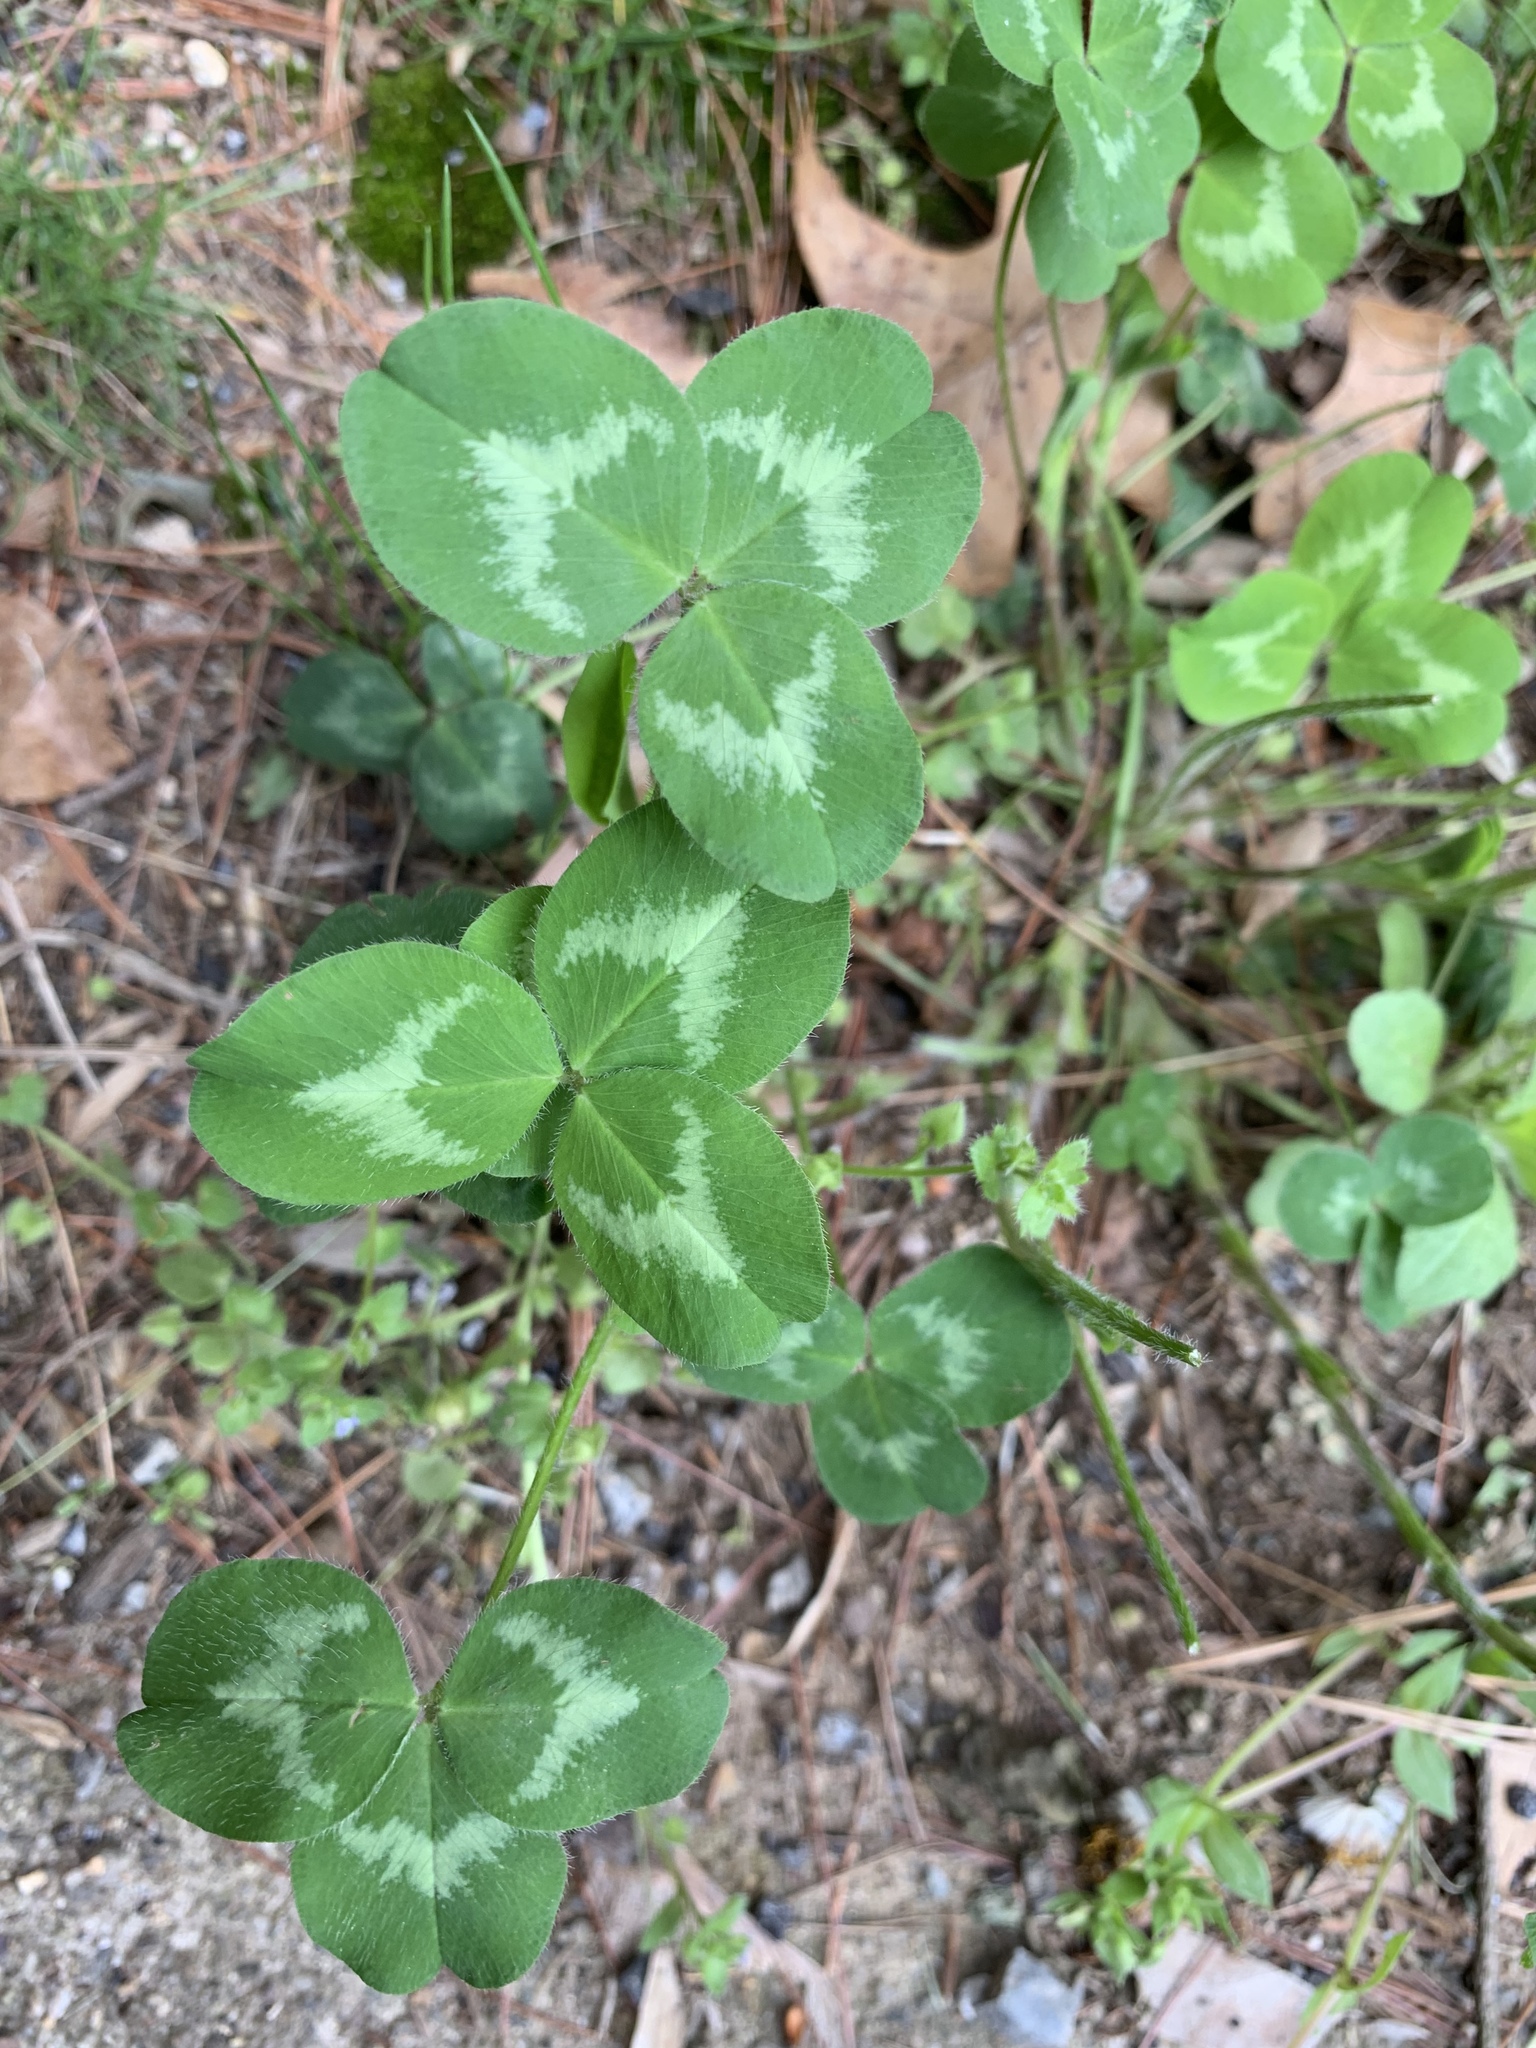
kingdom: Plantae
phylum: Tracheophyta
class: Magnoliopsida
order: Fabales
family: Fabaceae
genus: Trifolium
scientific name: Trifolium pratense
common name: Red clover
